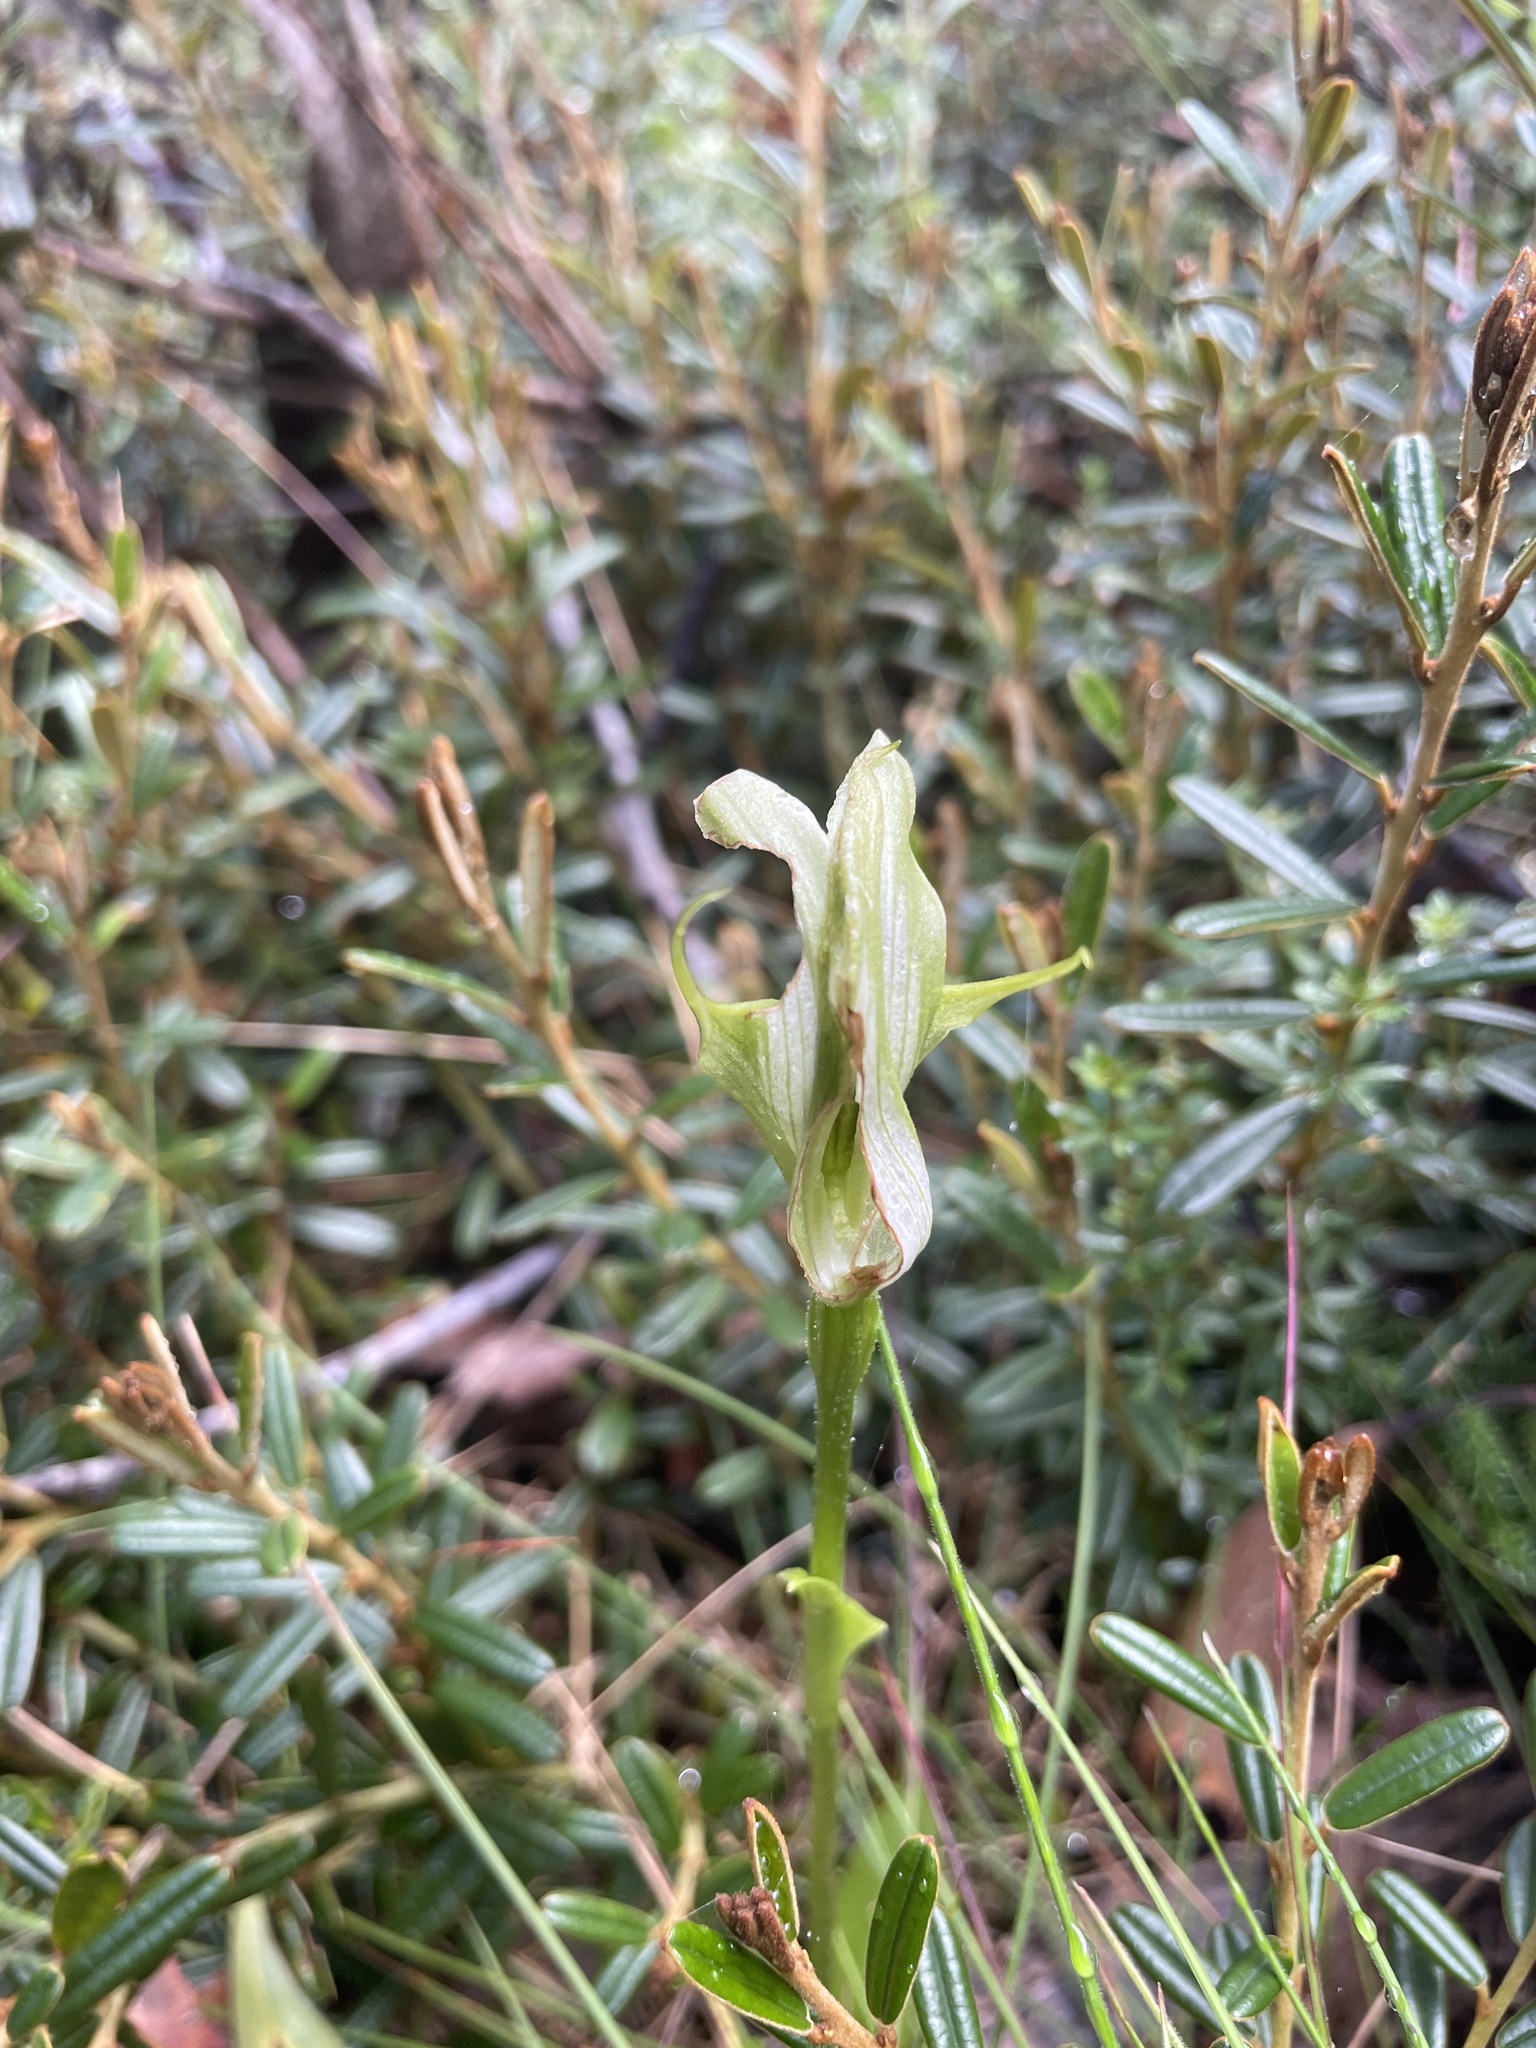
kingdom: Plantae
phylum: Tracheophyta
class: Liliopsida
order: Asparagales
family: Orchidaceae
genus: Pterostylis
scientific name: Pterostylis monticola
